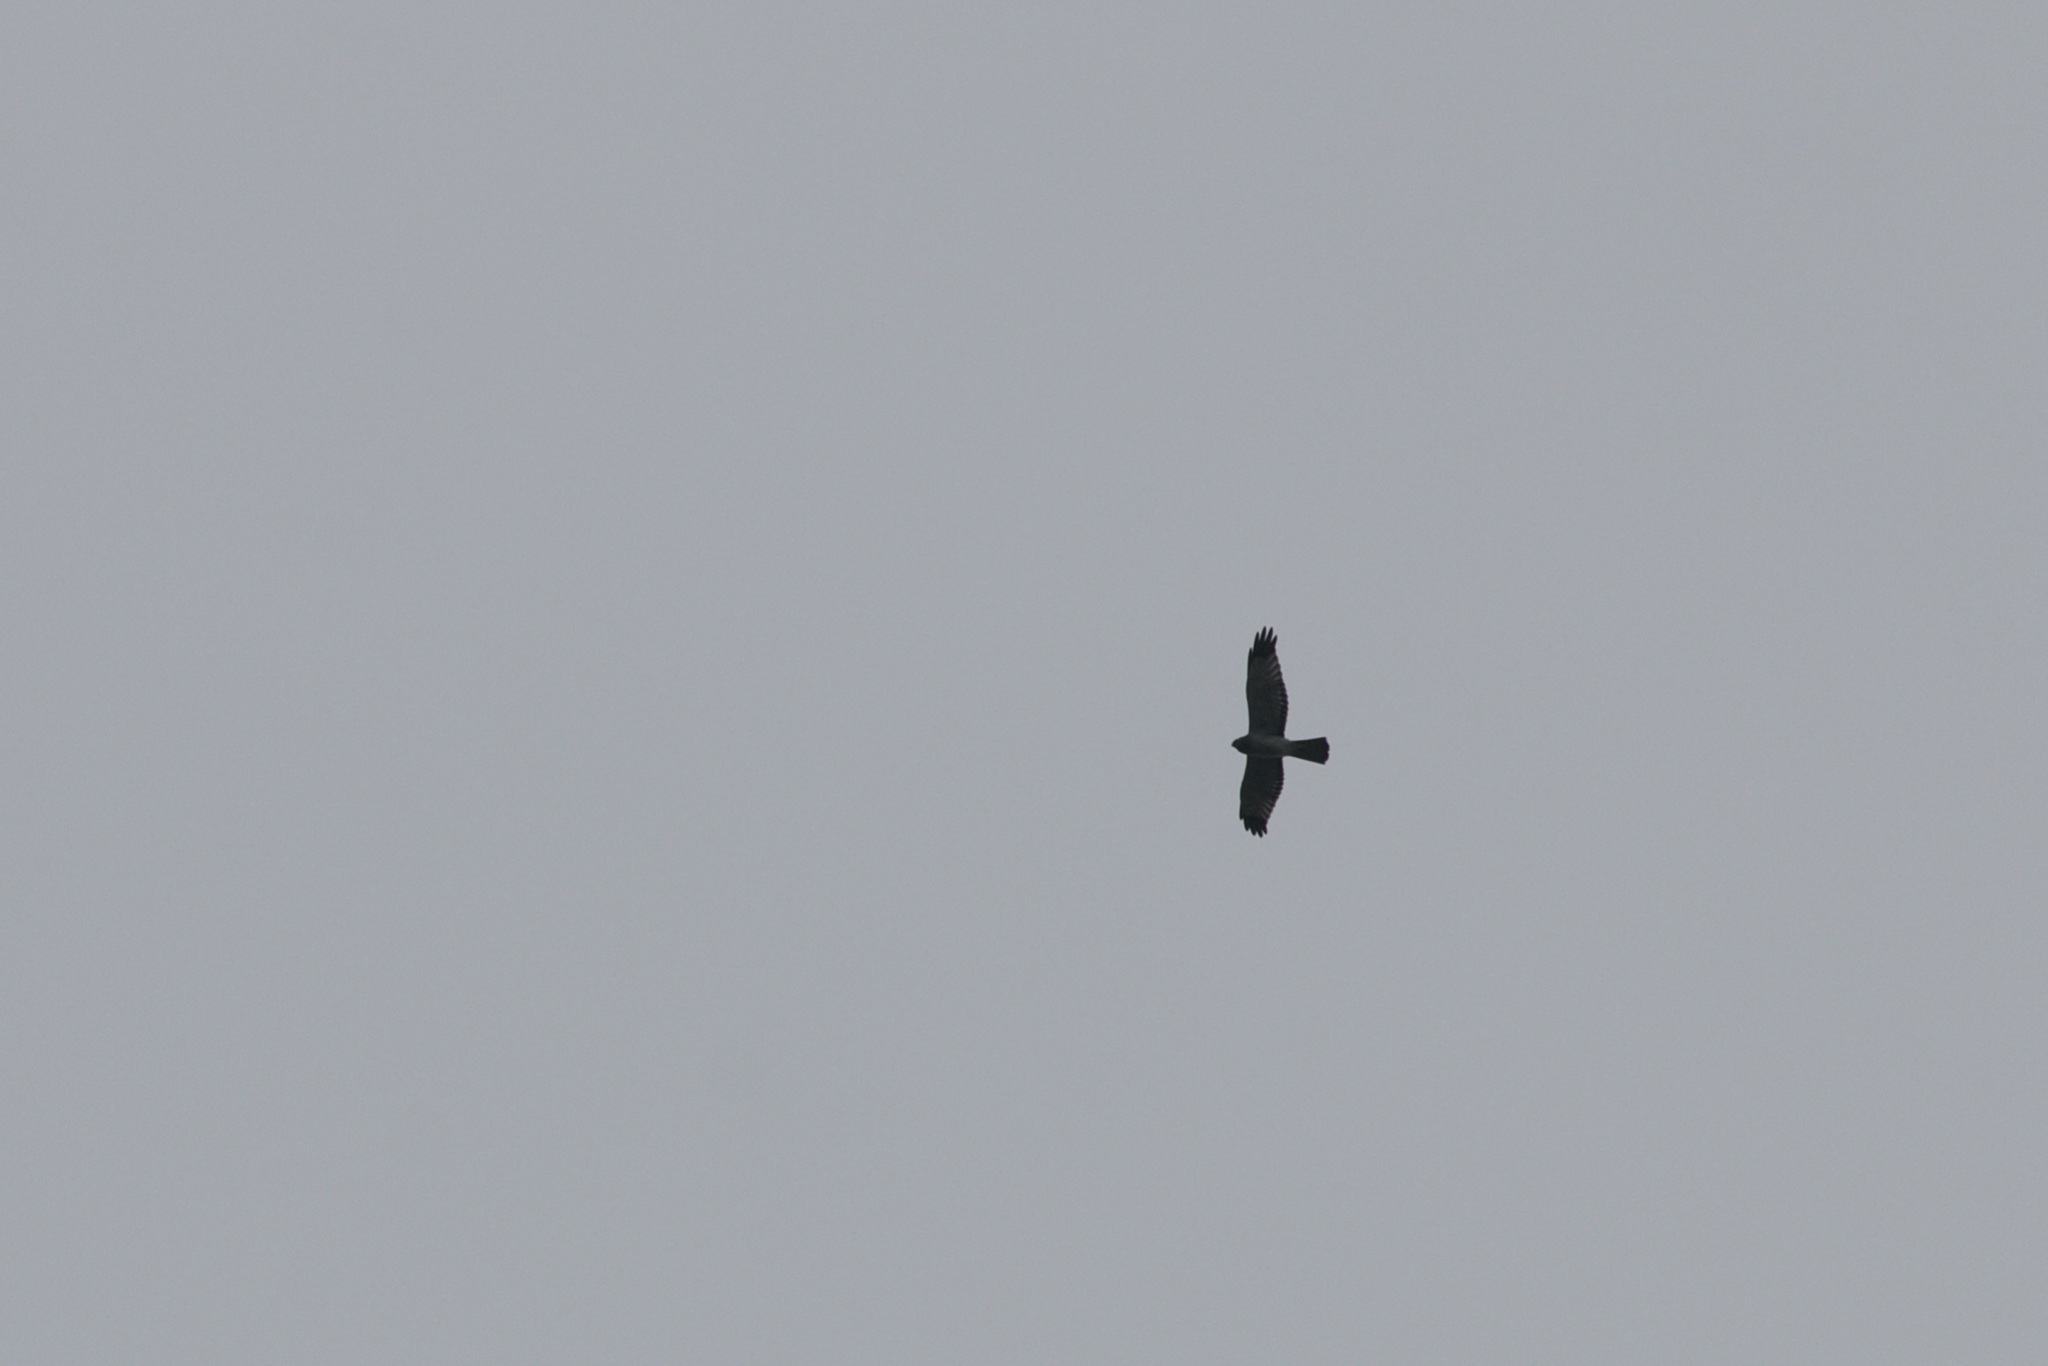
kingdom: Animalia
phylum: Chordata
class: Aves
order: Accipitriformes
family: Accipitridae
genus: Circus
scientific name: Circus cyaneus
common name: Hen harrier
